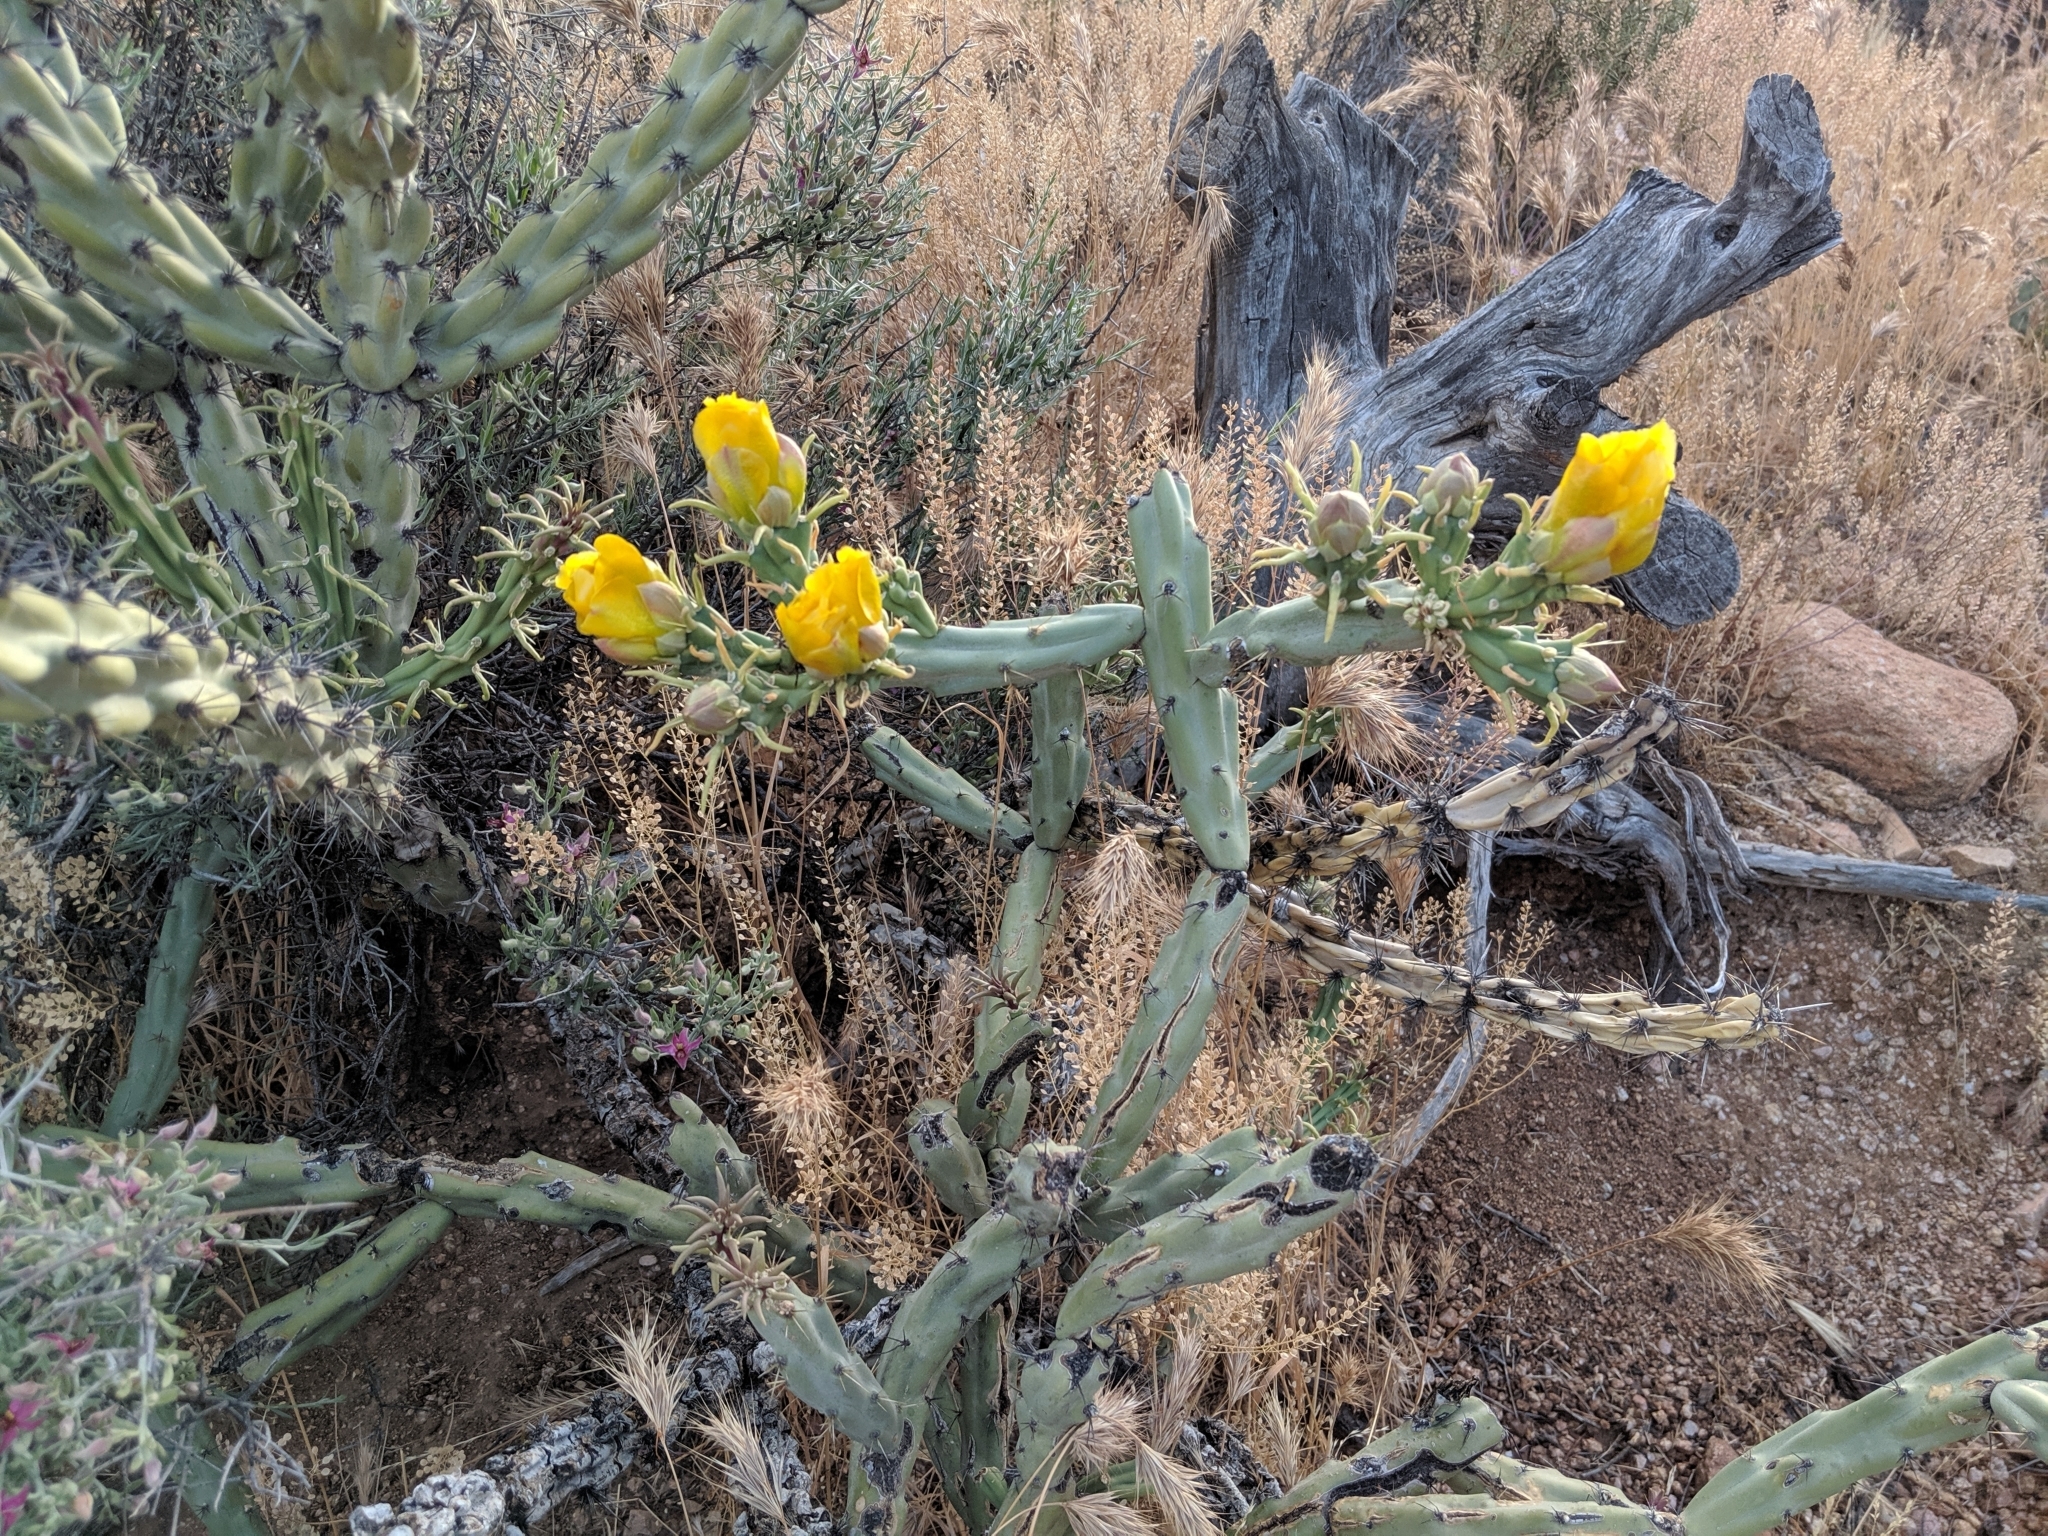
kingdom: Plantae
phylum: Tracheophyta
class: Magnoliopsida
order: Caryophyllales
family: Cactaceae
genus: Cylindropuntia
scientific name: Cylindropuntia acanthocarpa
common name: Buckhorn cholla
